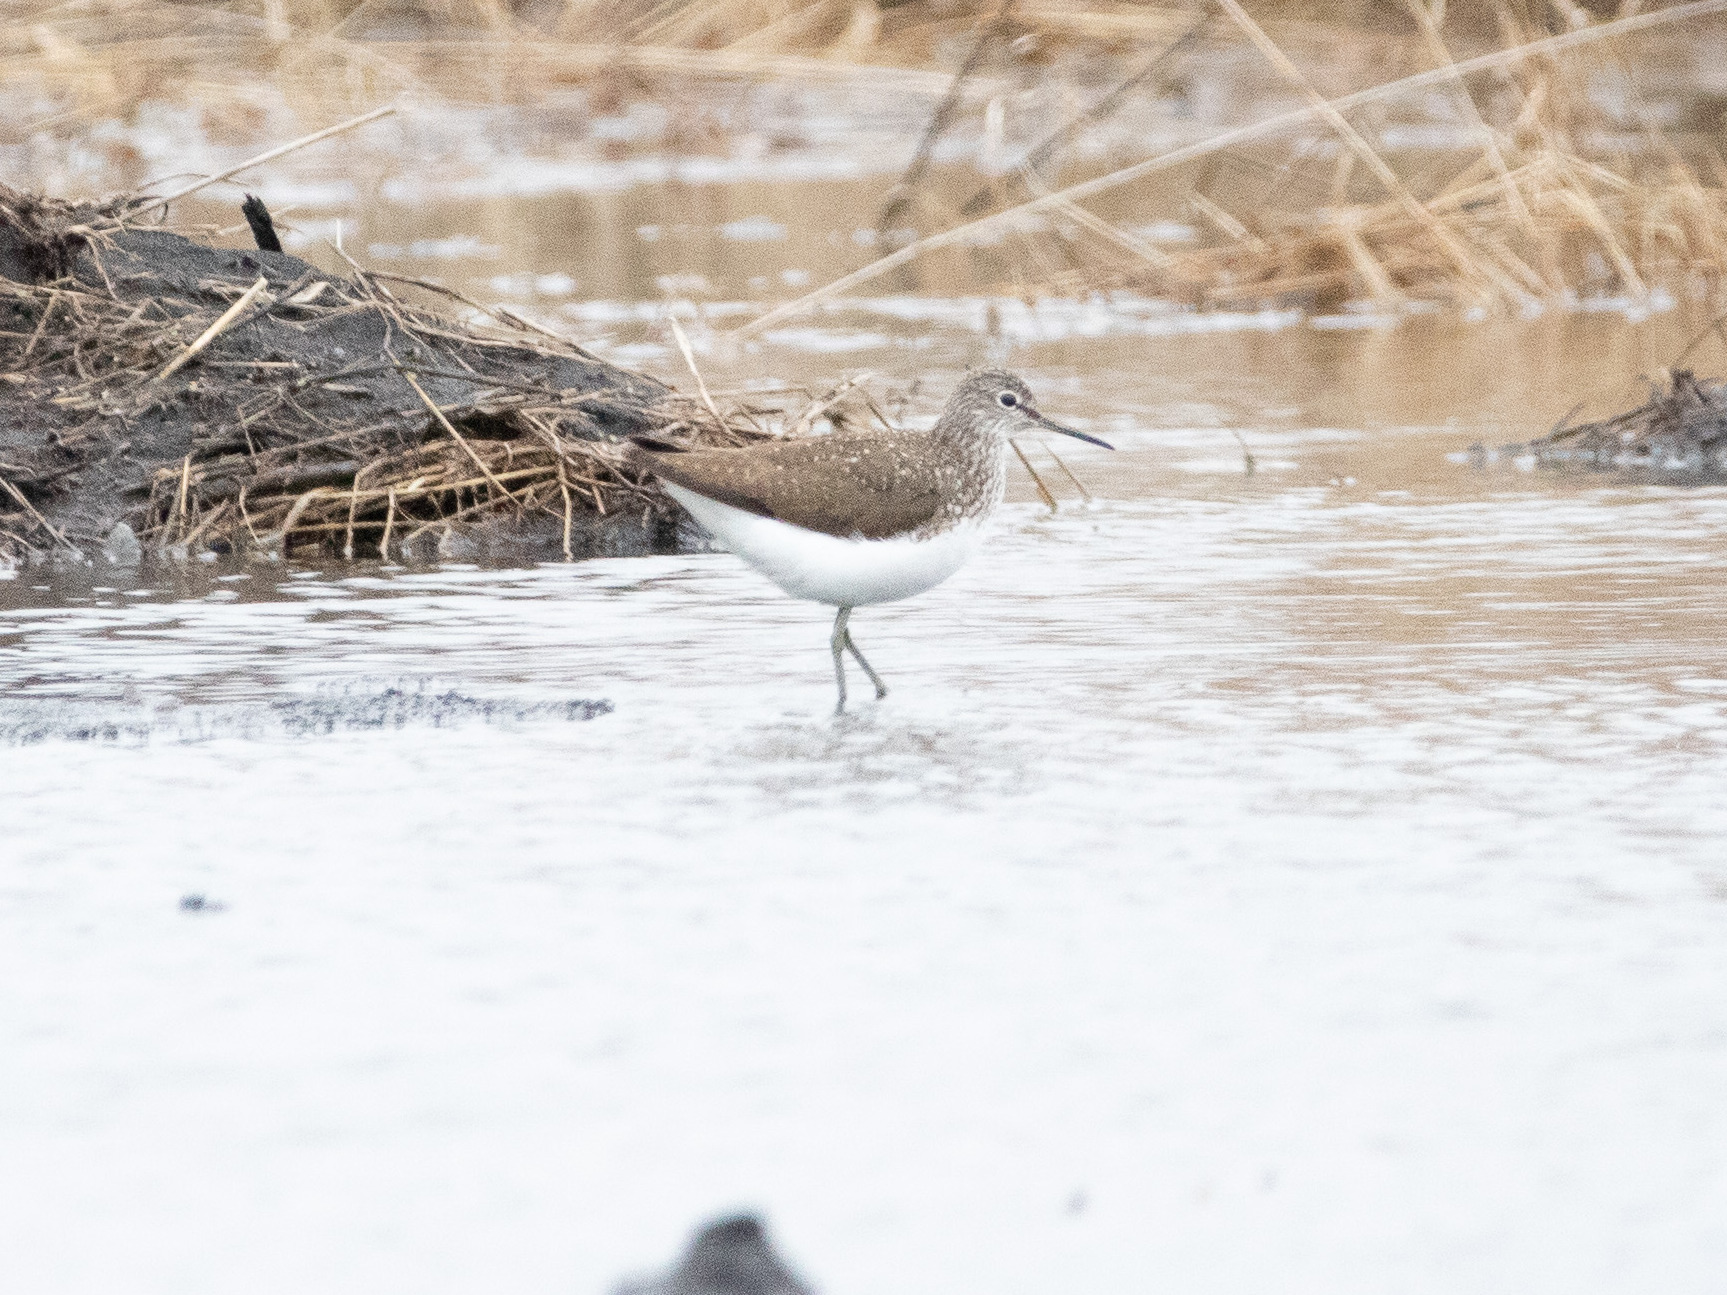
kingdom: Animalia
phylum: Chordata
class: Aves
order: Charadriiformes
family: Scolopacidae
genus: Tringa
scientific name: Tringa ochropus
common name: Green sandpiper
